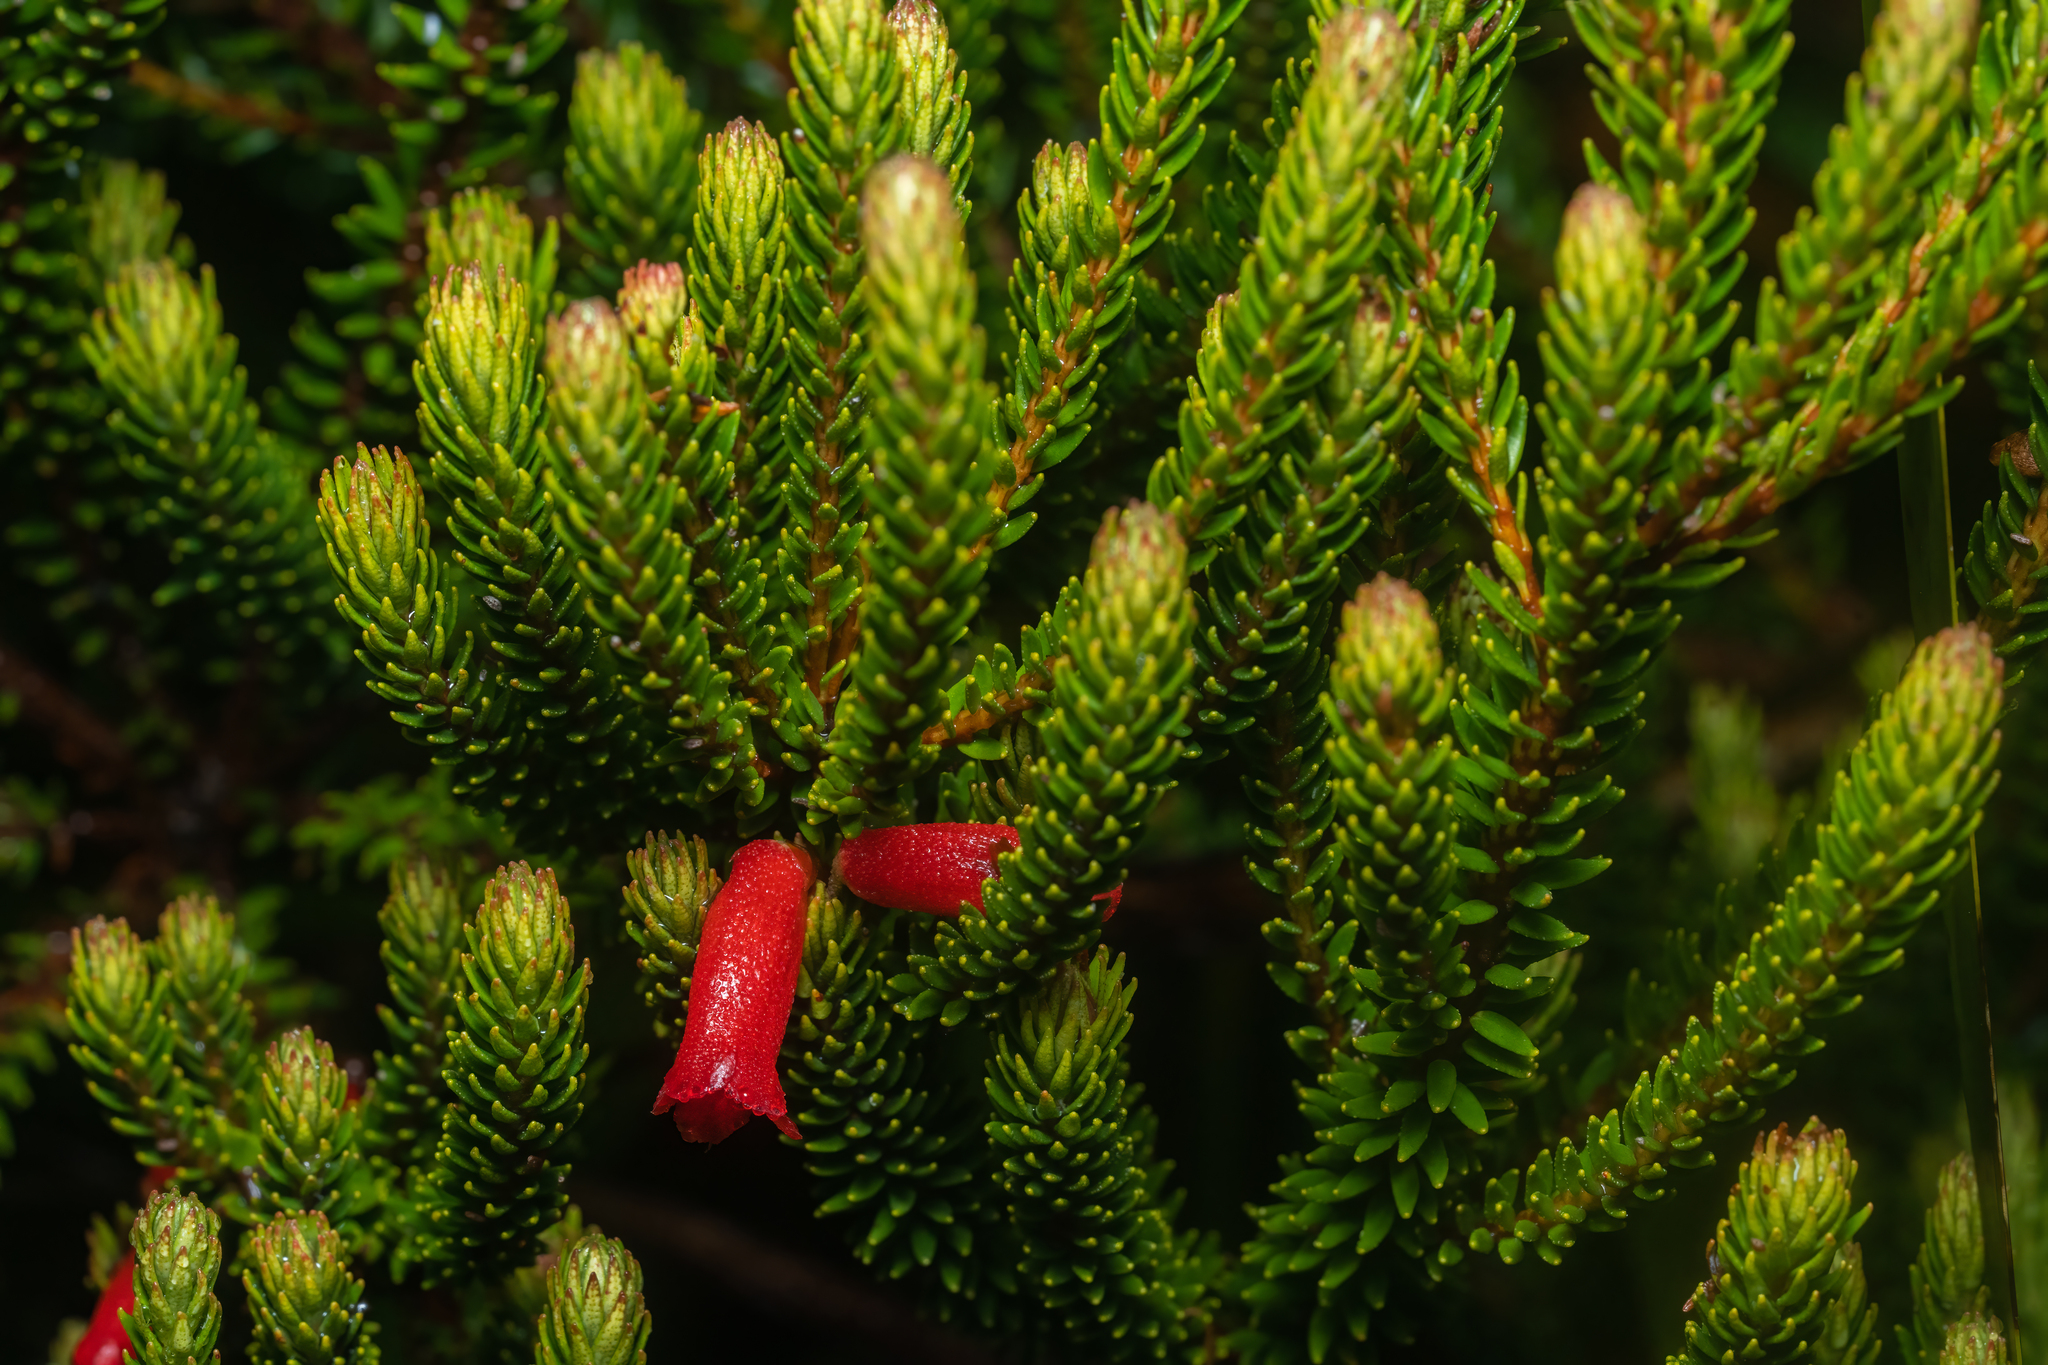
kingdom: Plantae
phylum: Tracheophyta
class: Magnoliopsida
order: Ericales
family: Ericaceae
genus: Rhododendron
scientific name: Rhododendron ericoides
